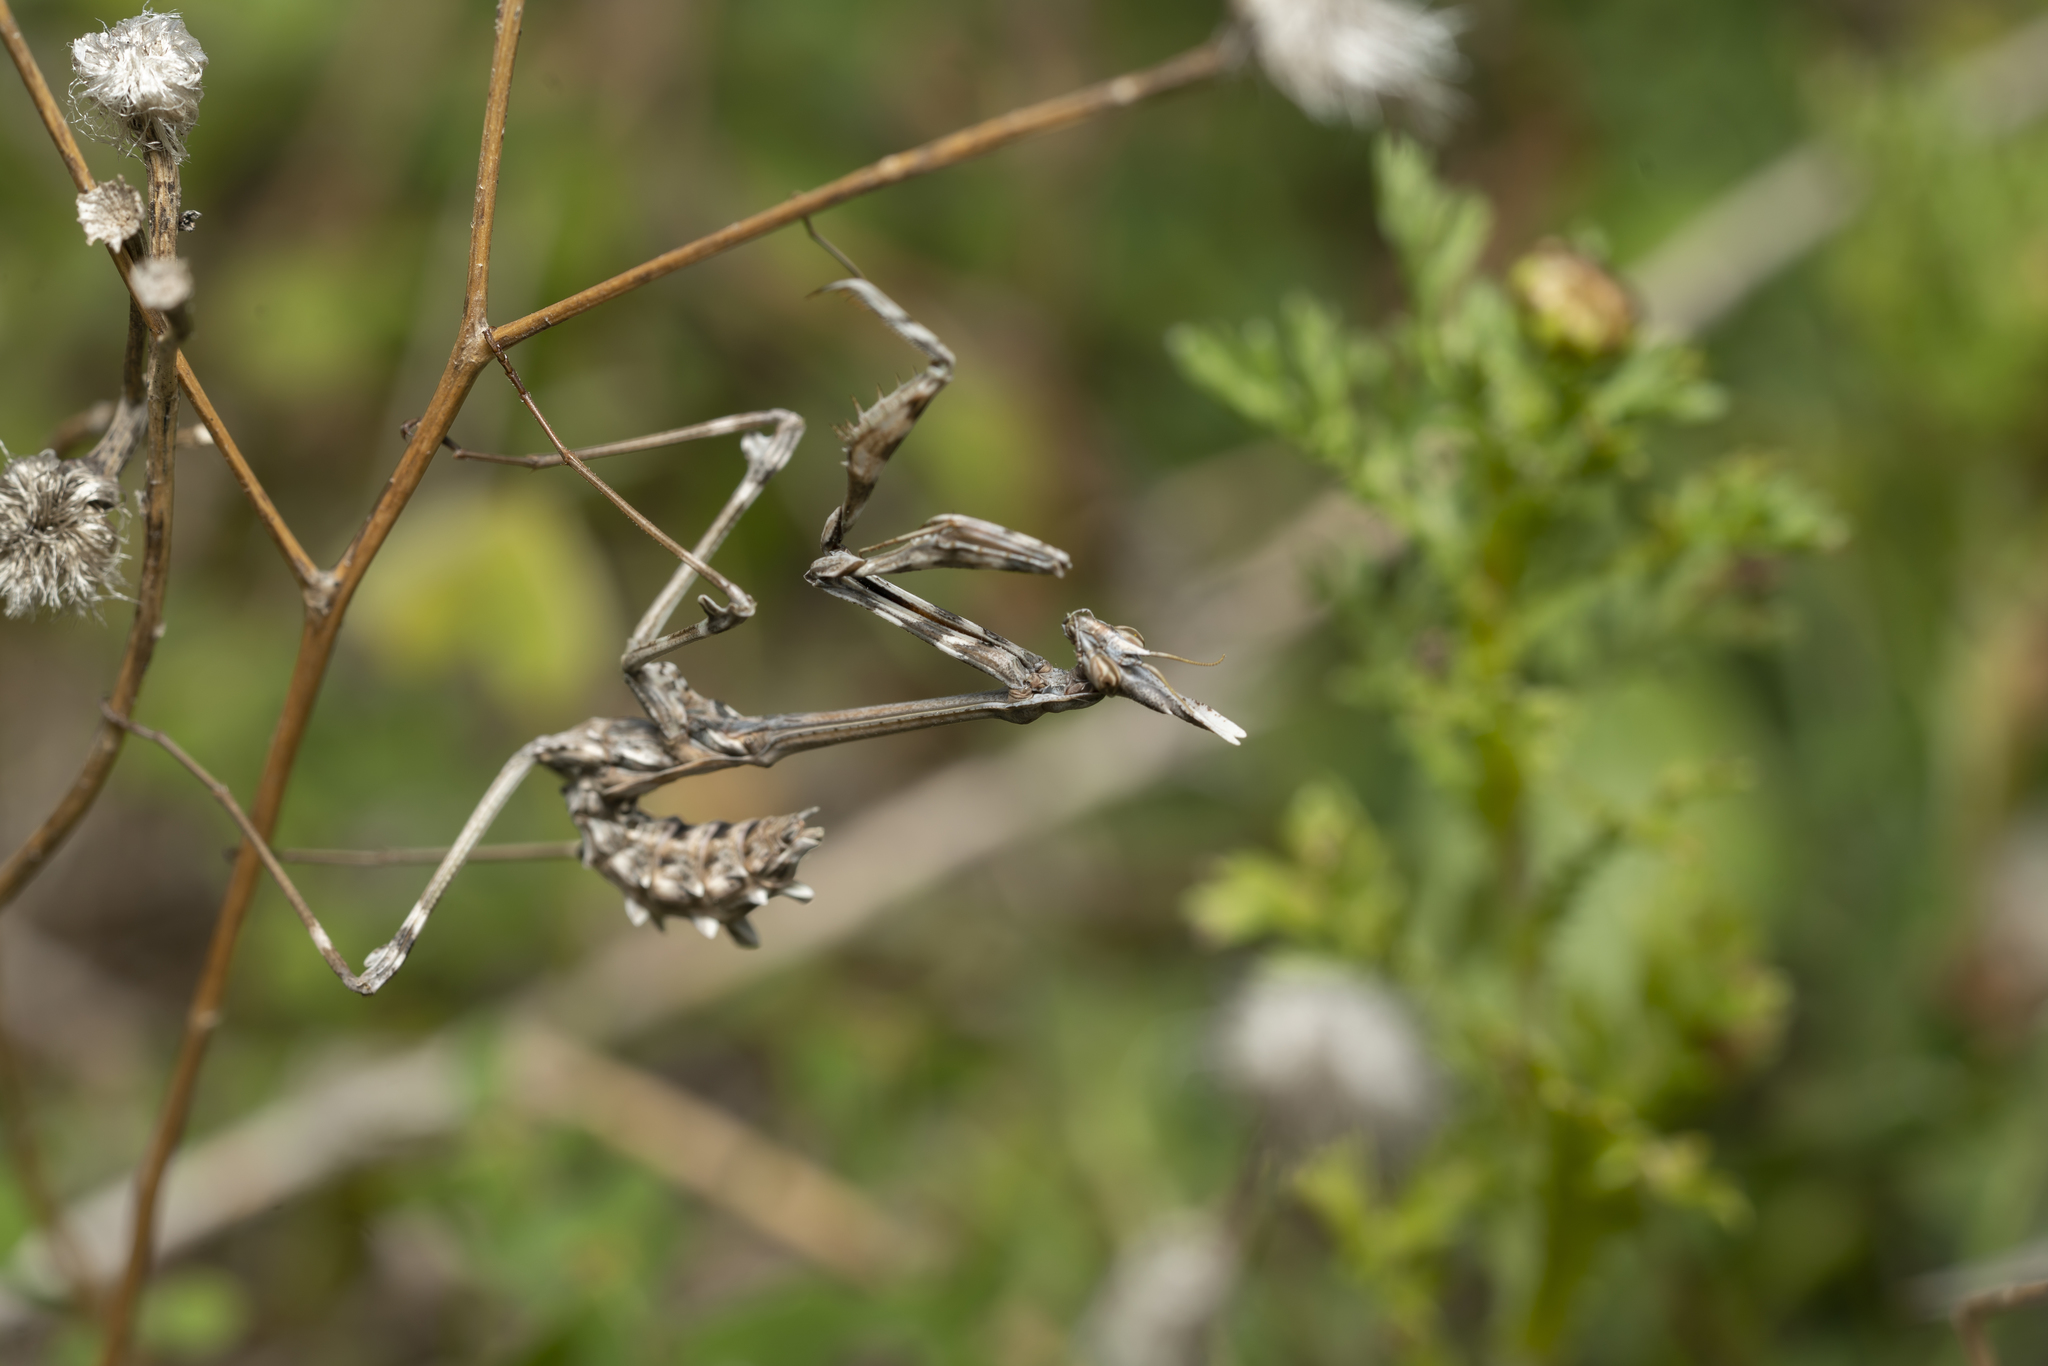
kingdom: Animalia
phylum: Arthropoda
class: Insecta
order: Mantodea
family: Empusidae
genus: Empusa
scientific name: Empusa fasciata
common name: Devil's mare
